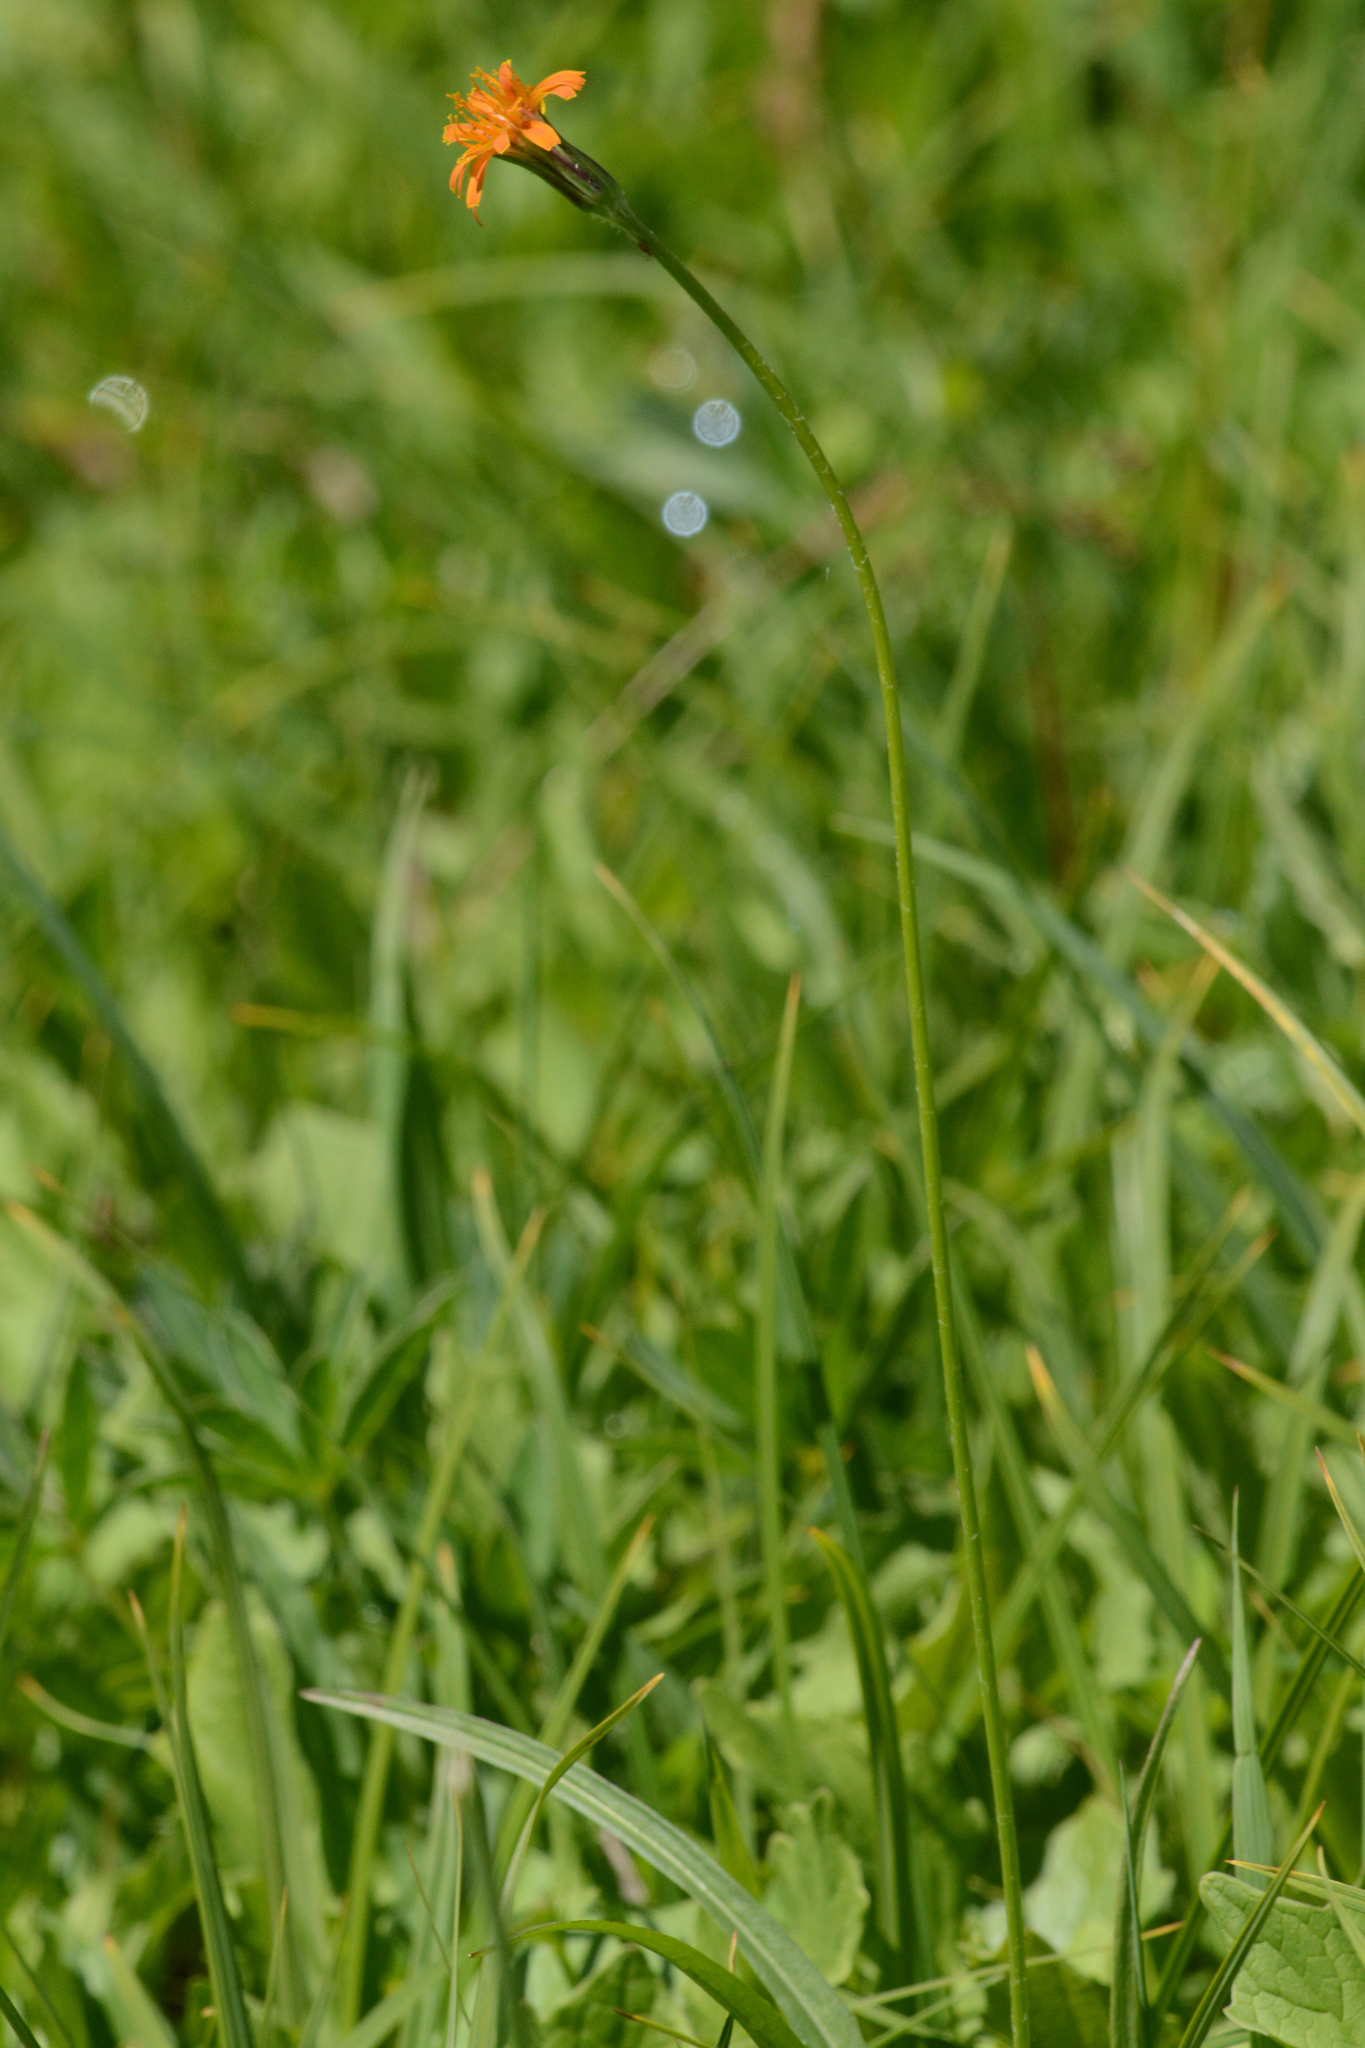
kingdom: Plantae
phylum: Tracheophyta
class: Magnoliopsida
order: Asterales
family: Asteraceae
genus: Agoseris
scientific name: Agoseris aurantiaca
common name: Mountain agoseris
